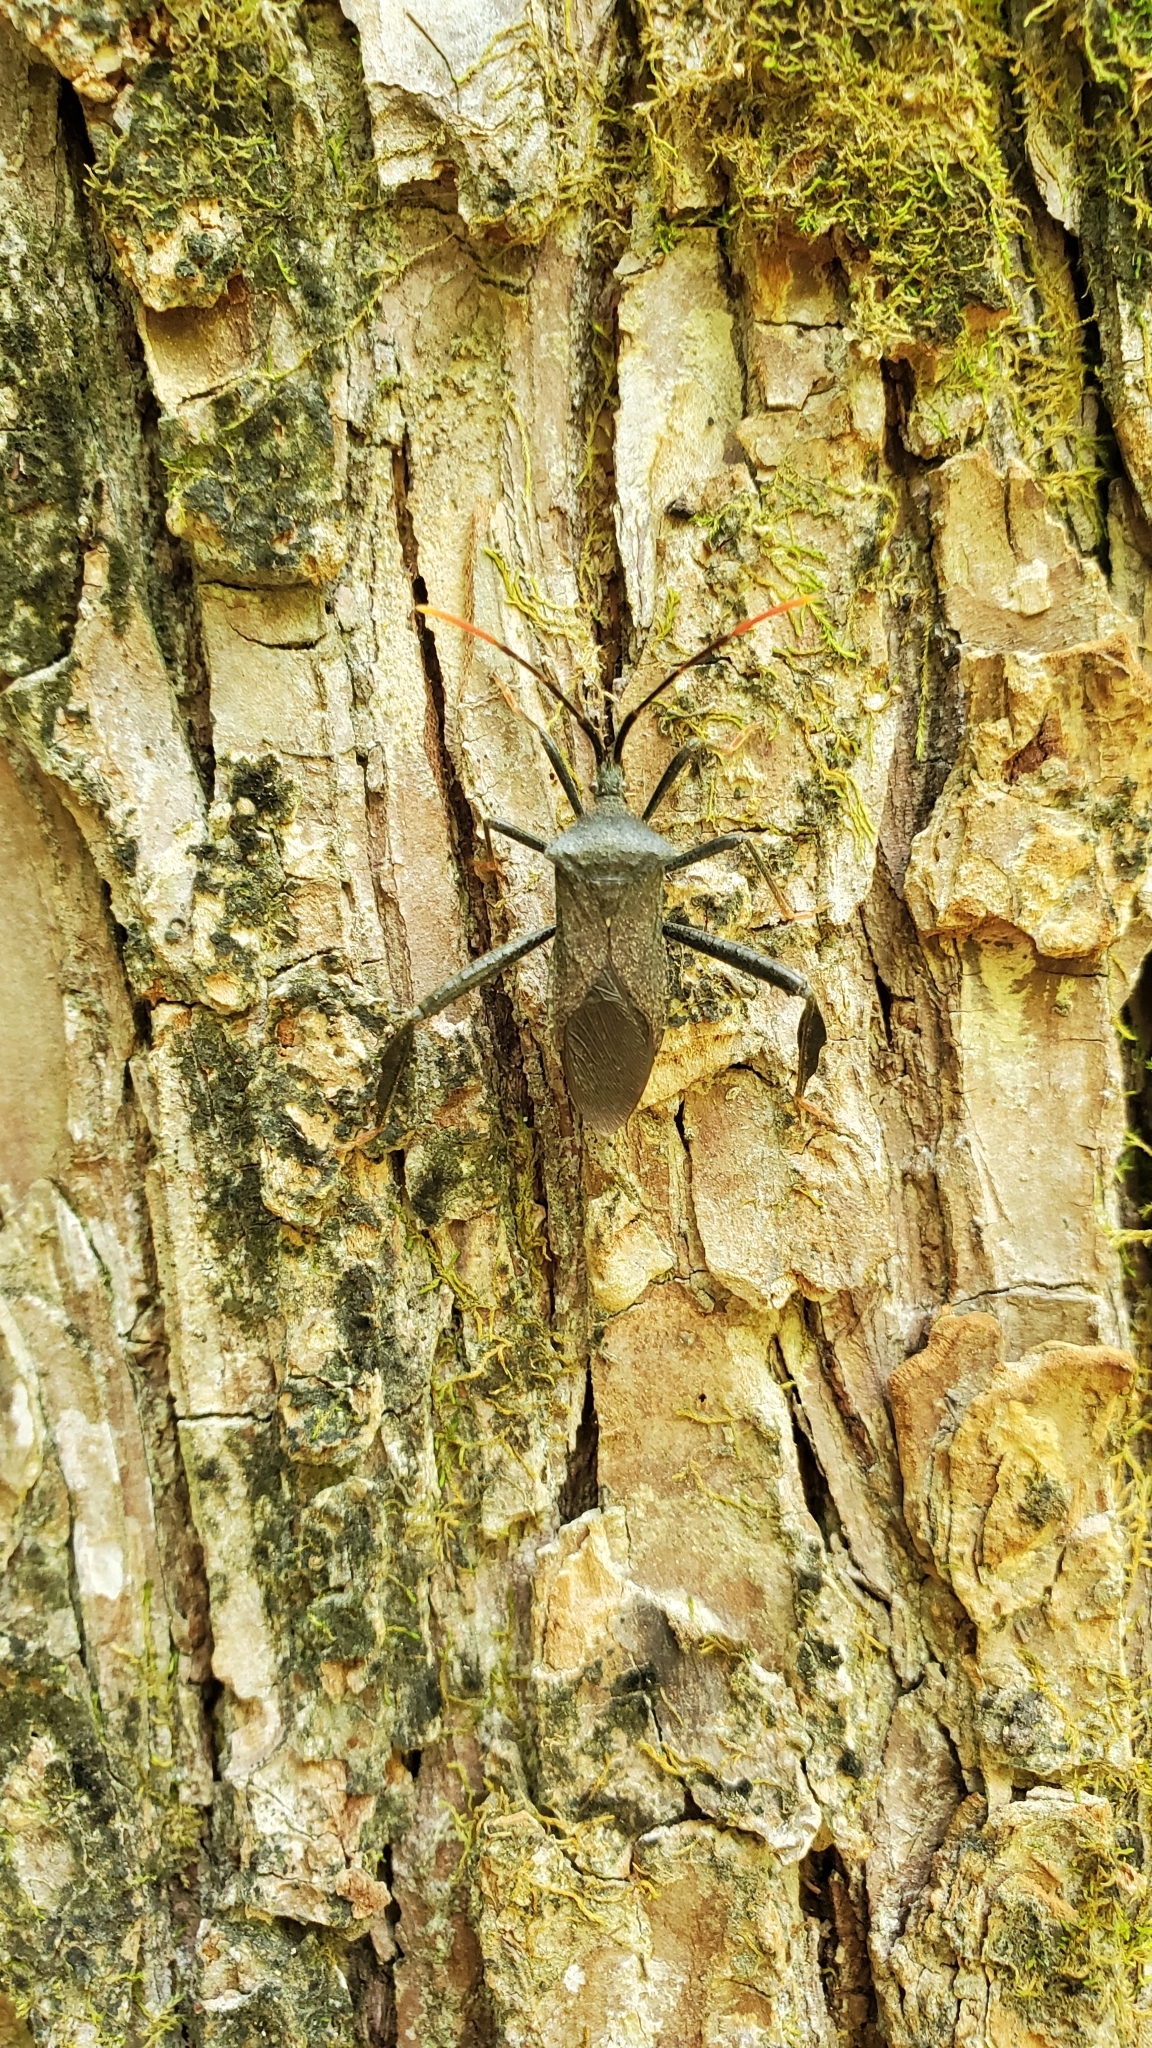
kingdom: Animalia
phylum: Arthropoda
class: Insecta
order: Hemiptera
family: Coreidae
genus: Acanthocephala
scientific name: Acanthocephala terminalis
